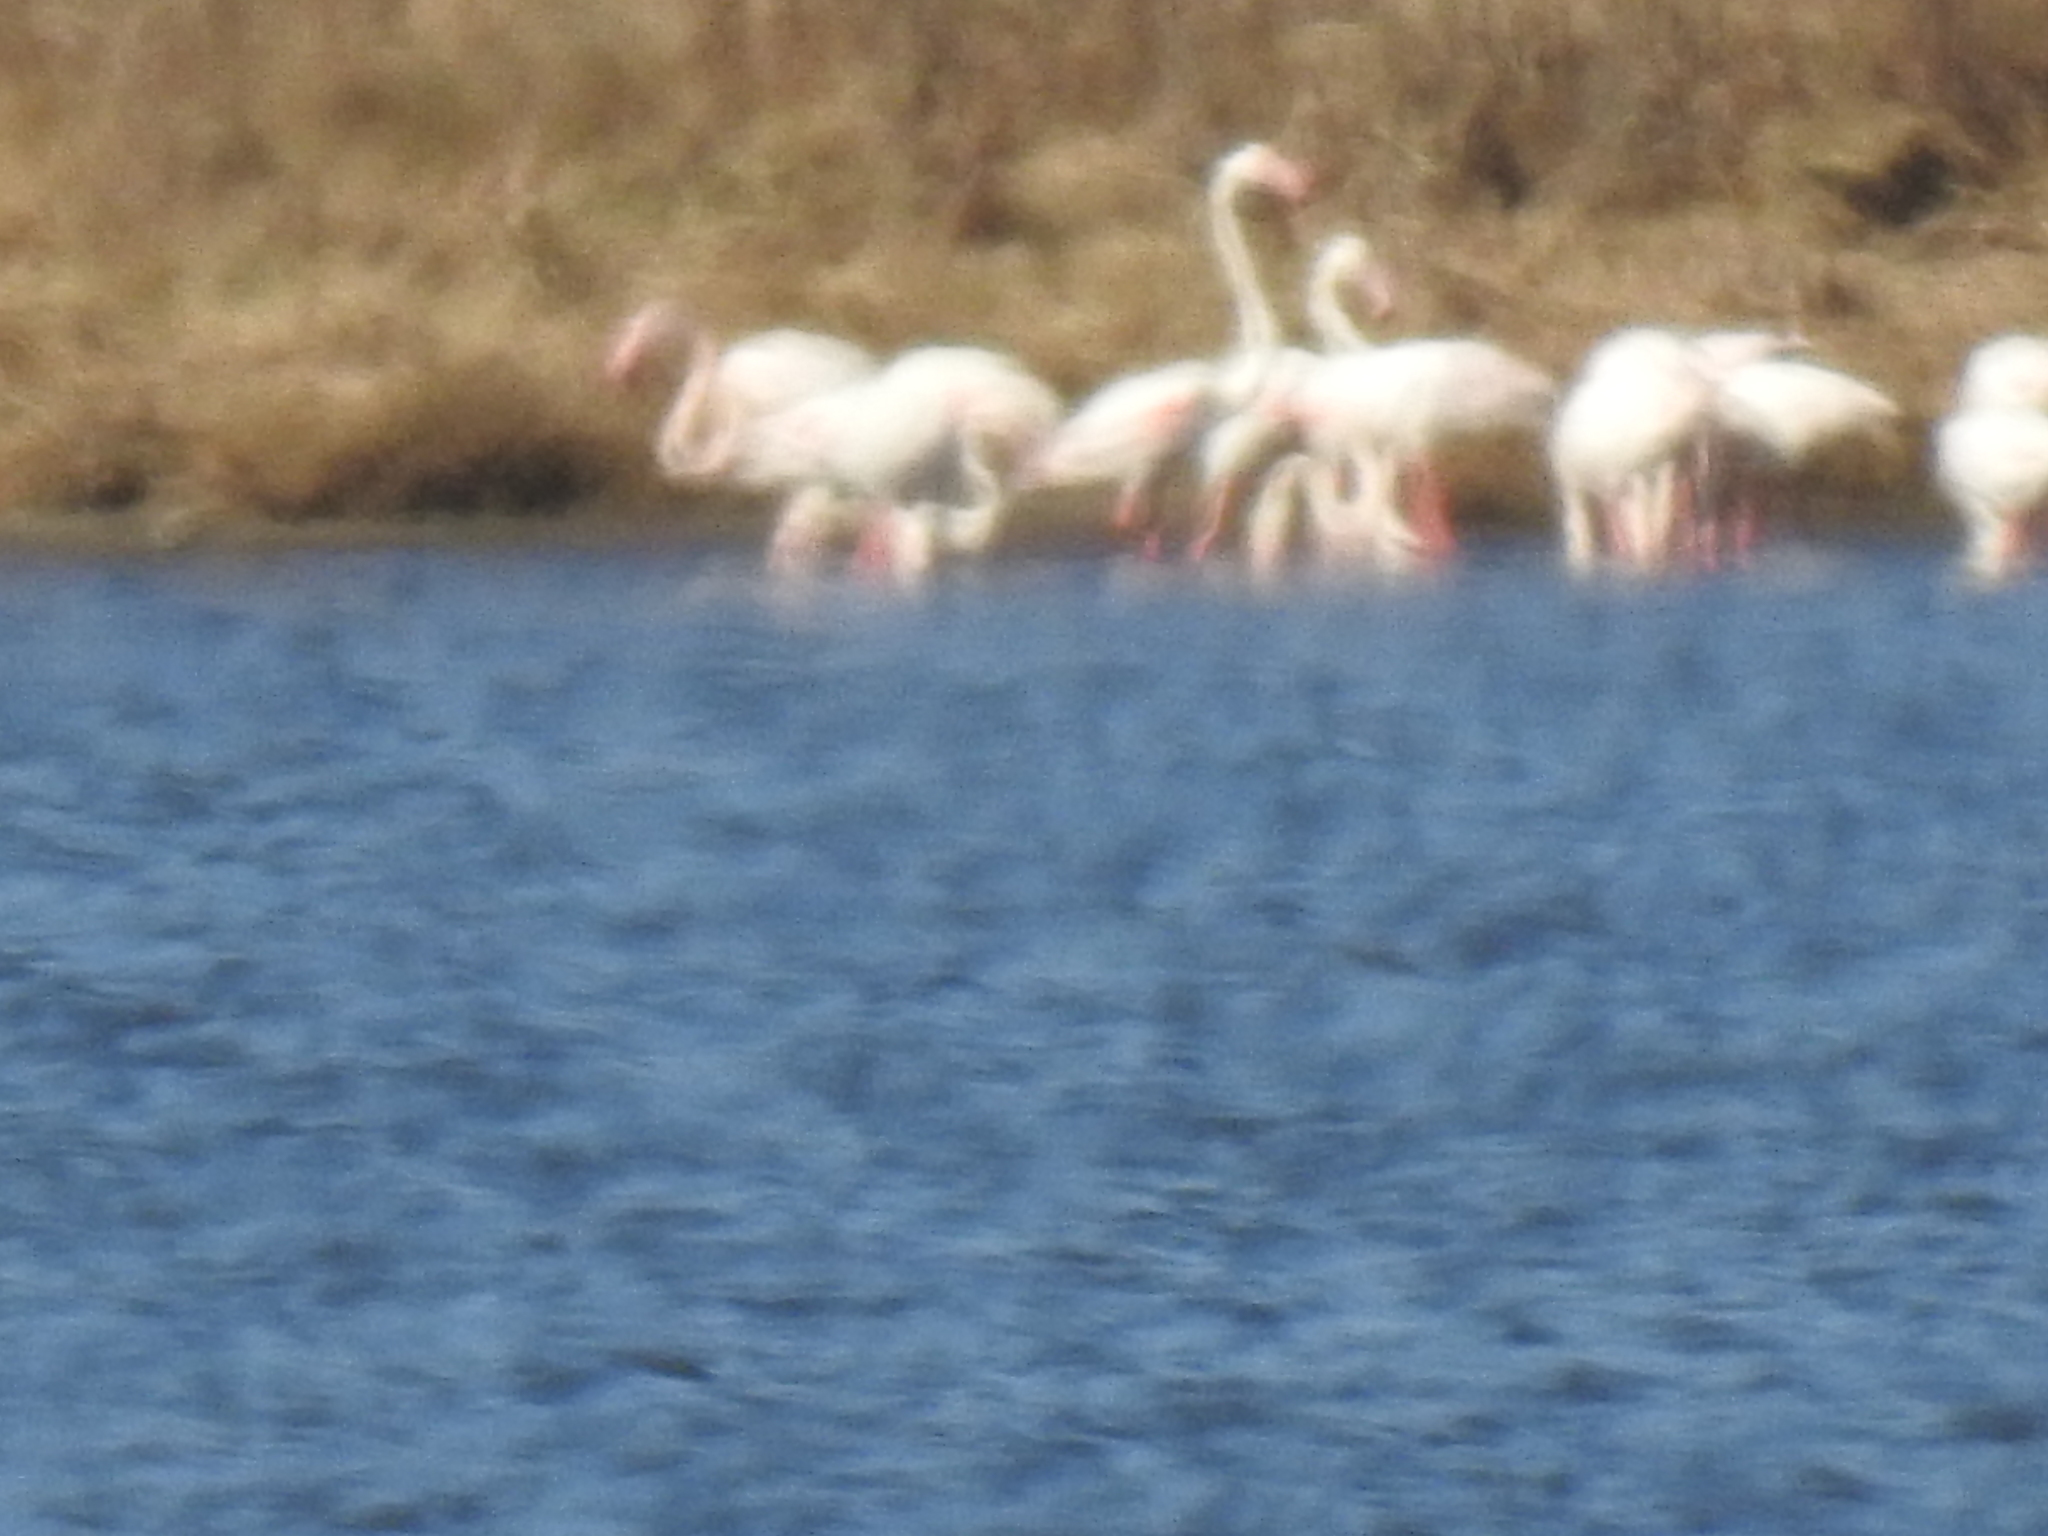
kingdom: Animalia
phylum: Chordata
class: Aves
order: Phoenicopteriformes
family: Phoenicopteridae
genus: Phoenicopterus
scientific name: Phoenicopterus roseus
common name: Greater flamingo
